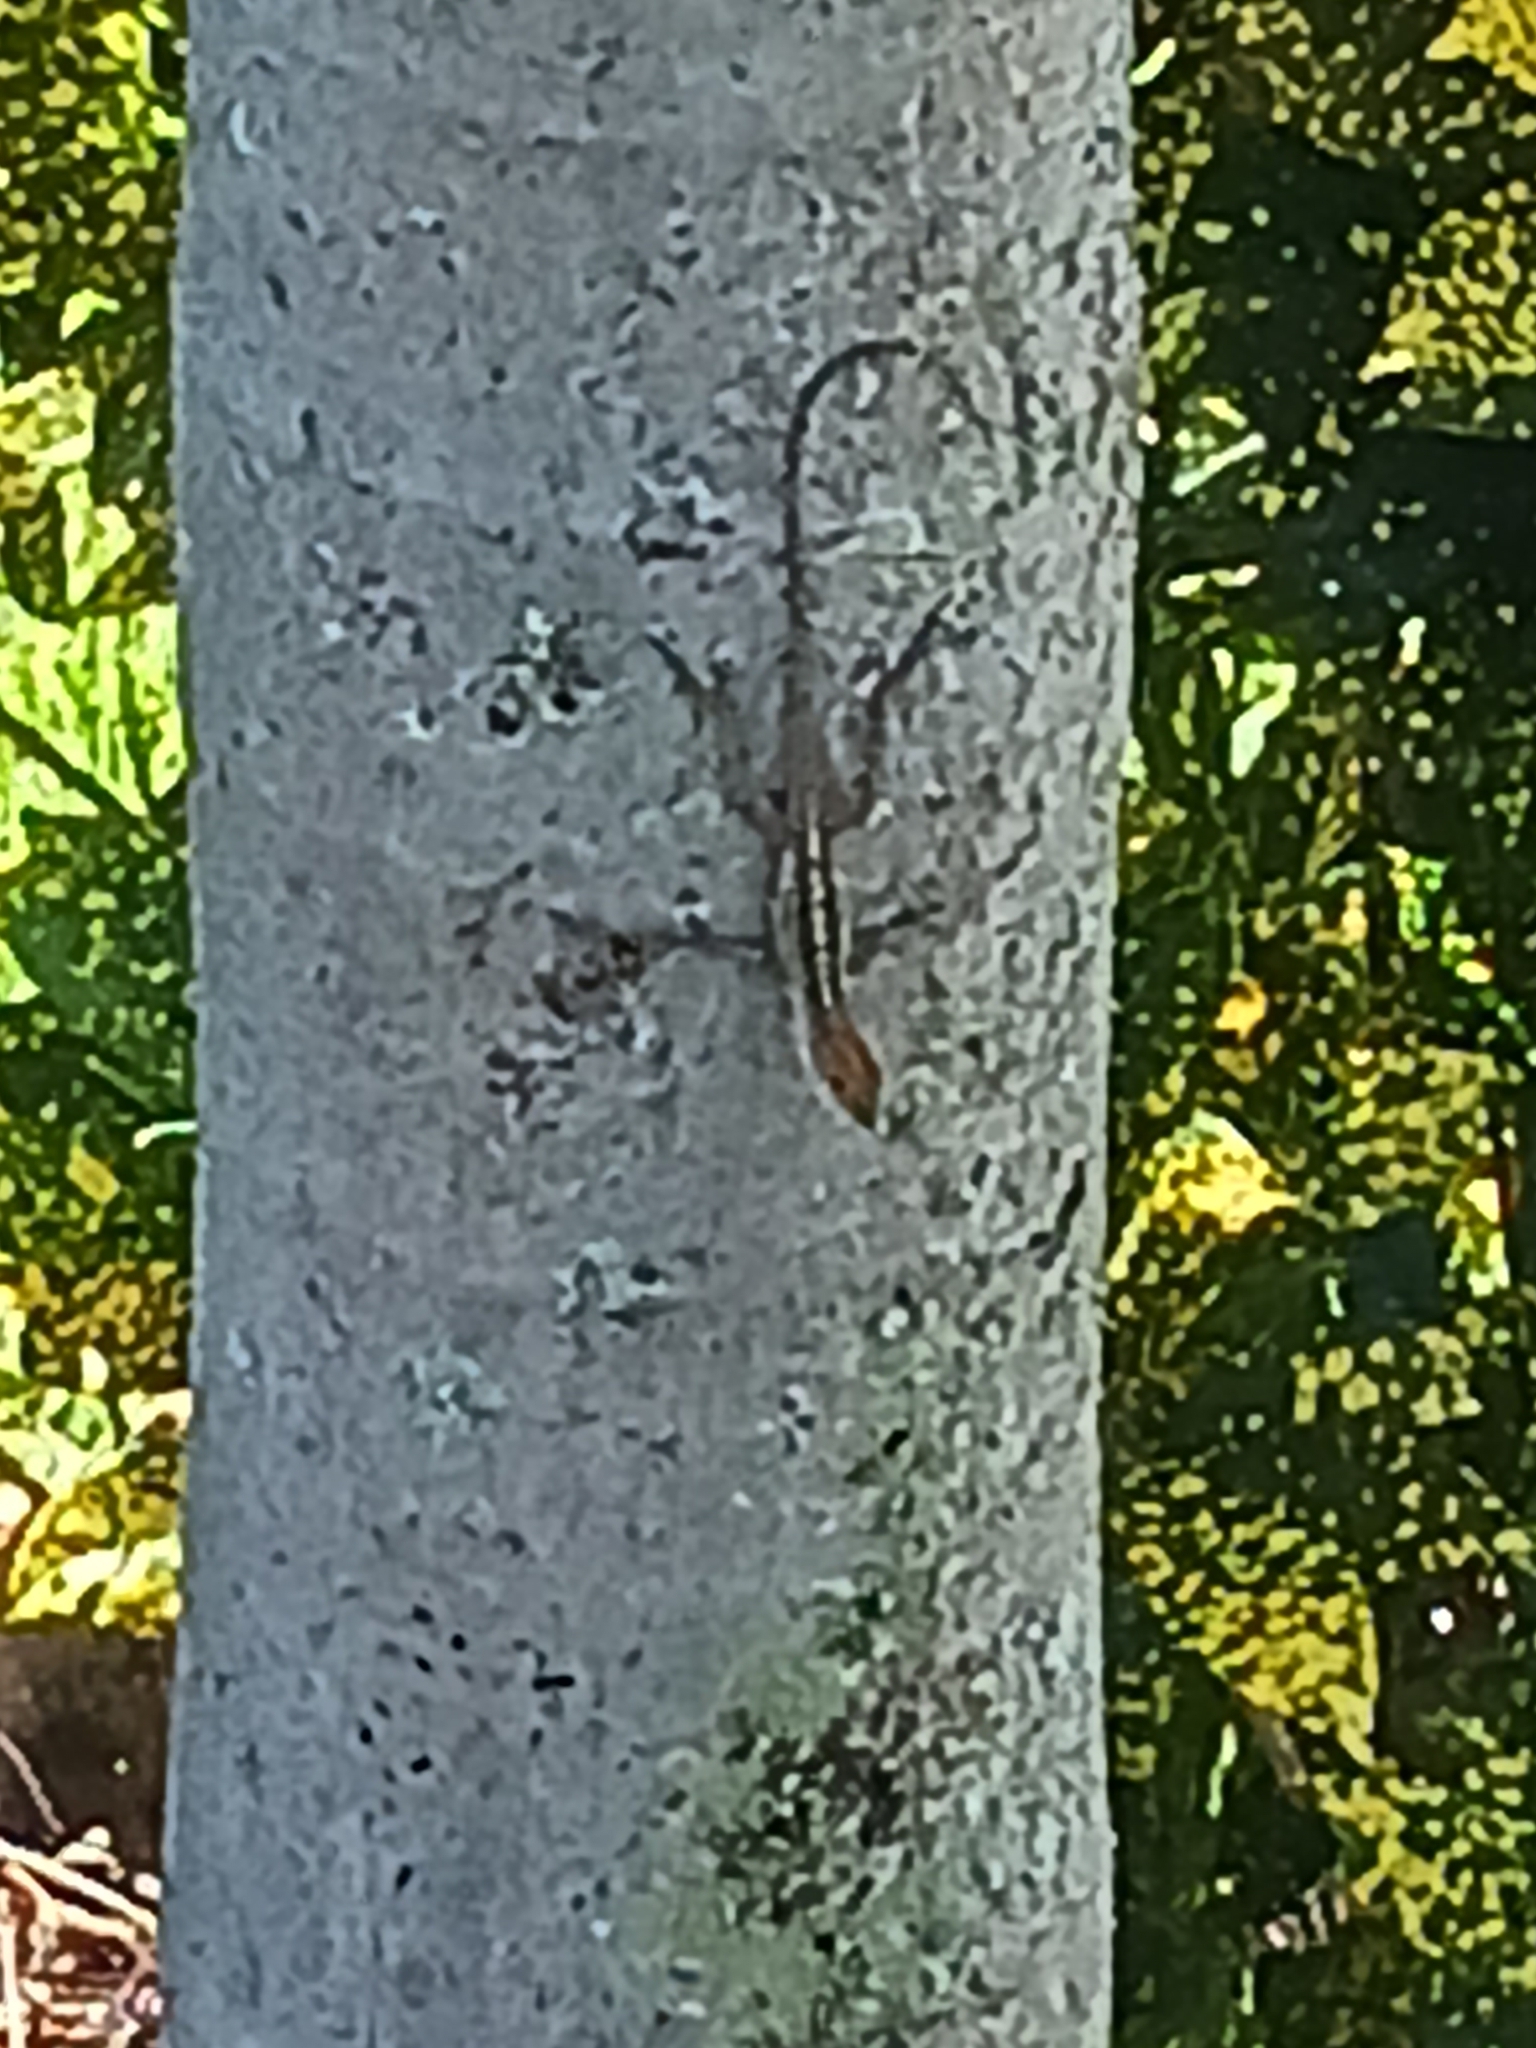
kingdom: Animalia
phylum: Chordata
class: Squamata
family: Dactyloidae
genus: Anolis
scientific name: Anolis sagrei
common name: Brown anole
